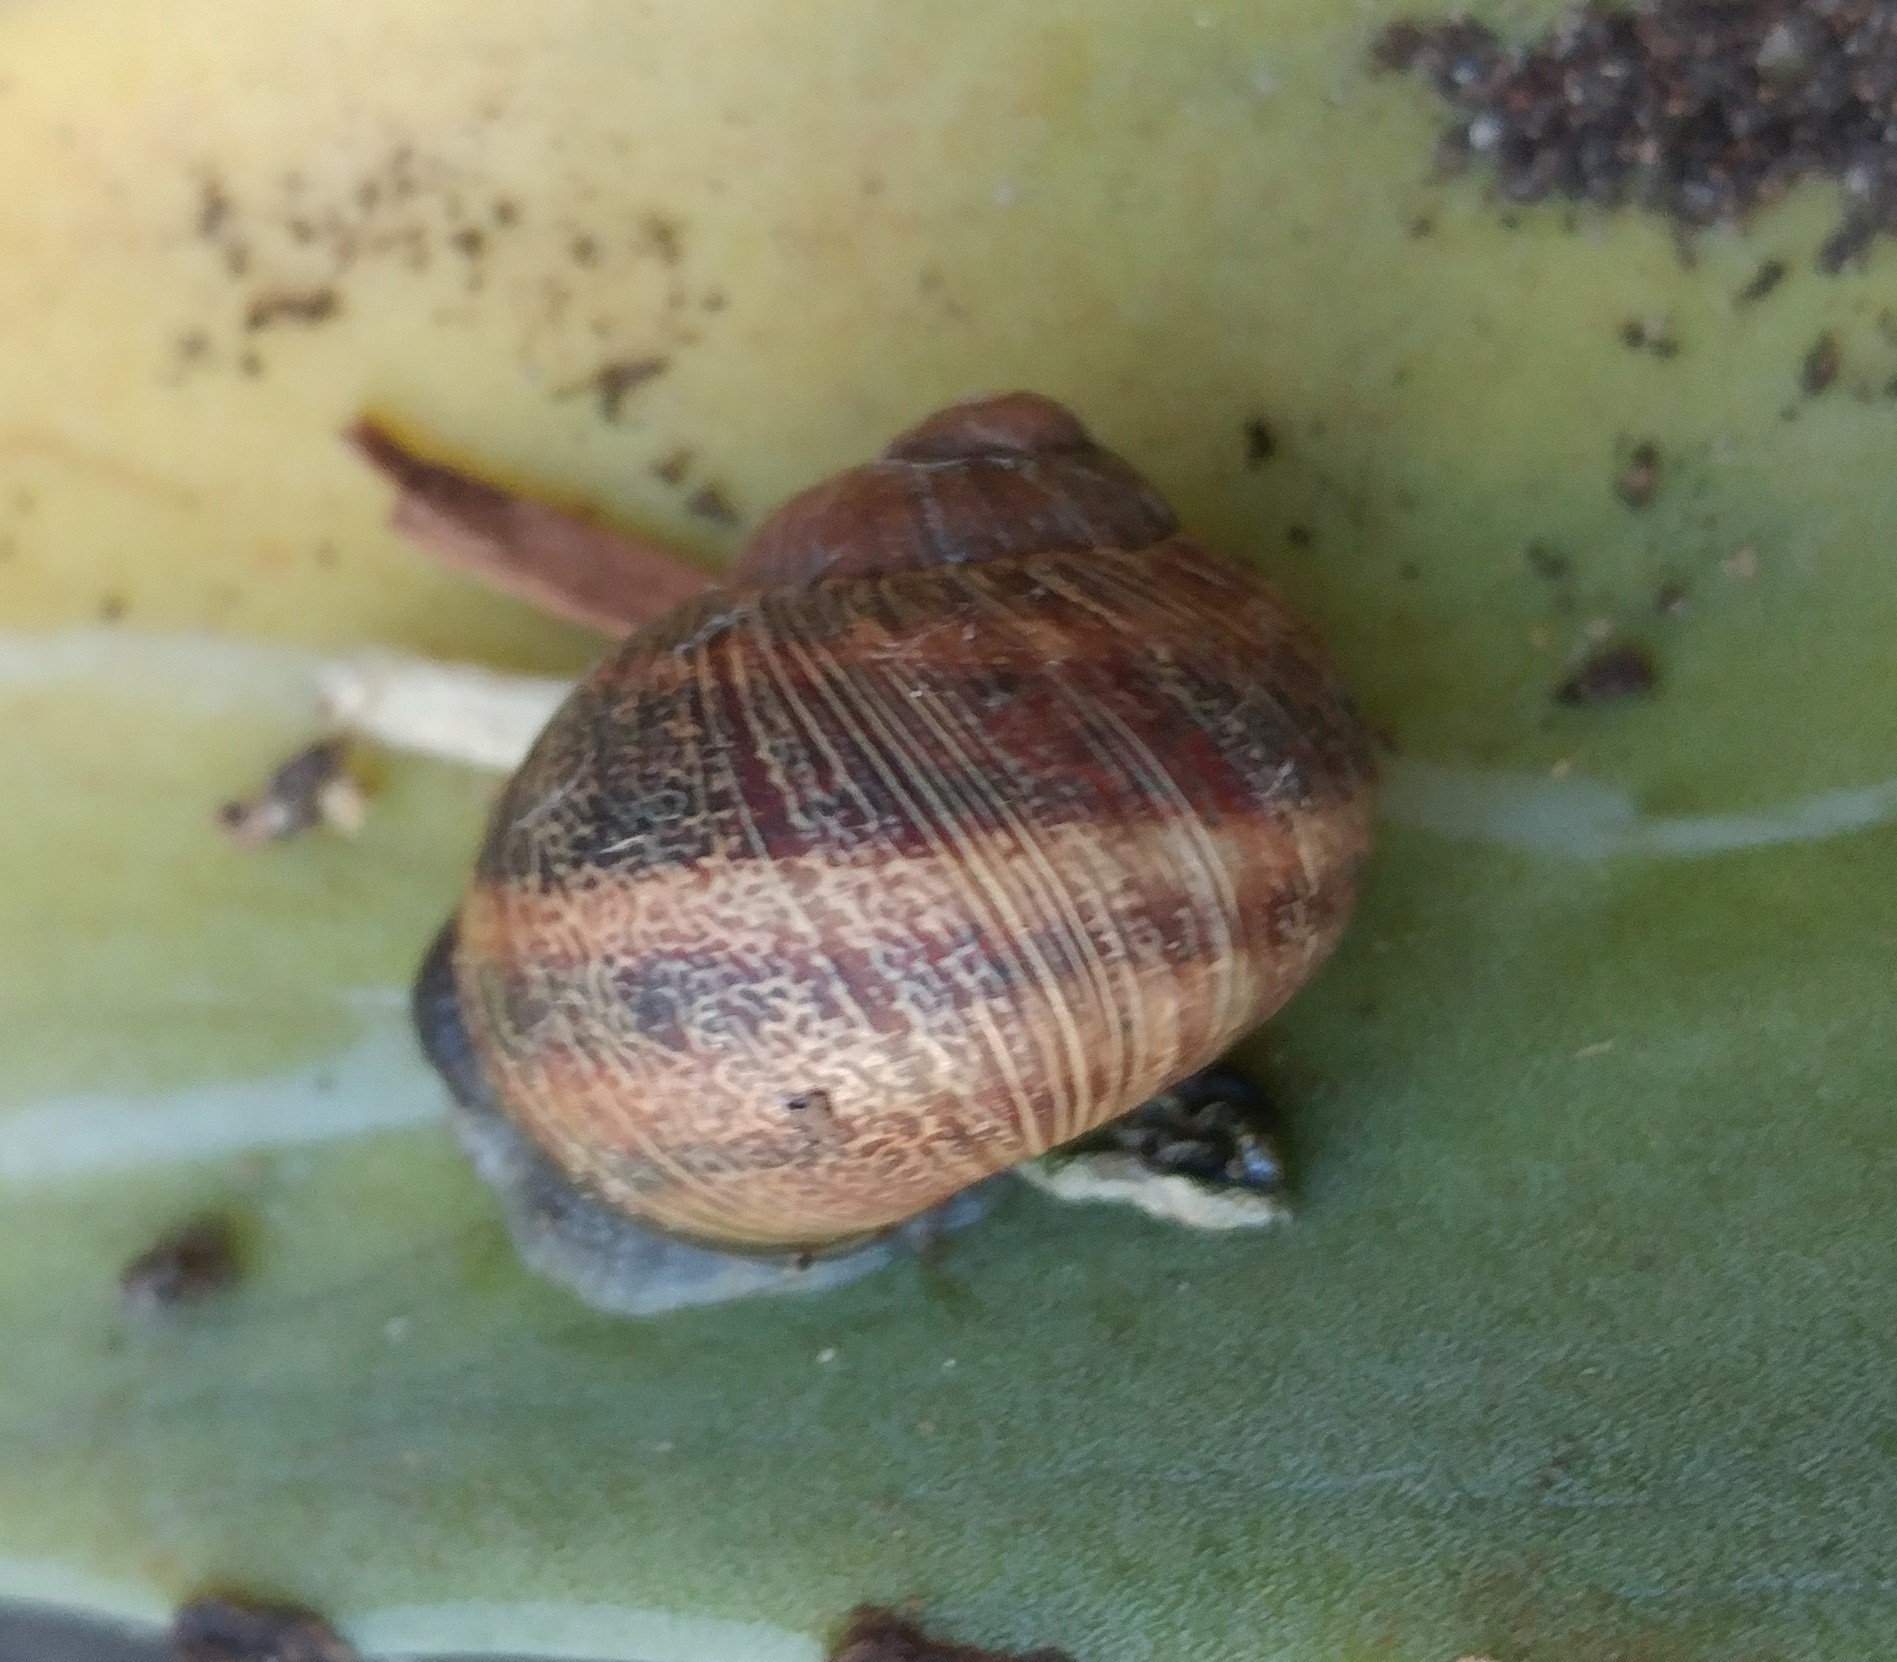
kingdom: Animalia
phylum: Mollusca
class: Gastropoda
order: Stylommatophora
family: Helicidae
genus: Cornu
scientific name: Cornu aspersum
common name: Brown garden snail
